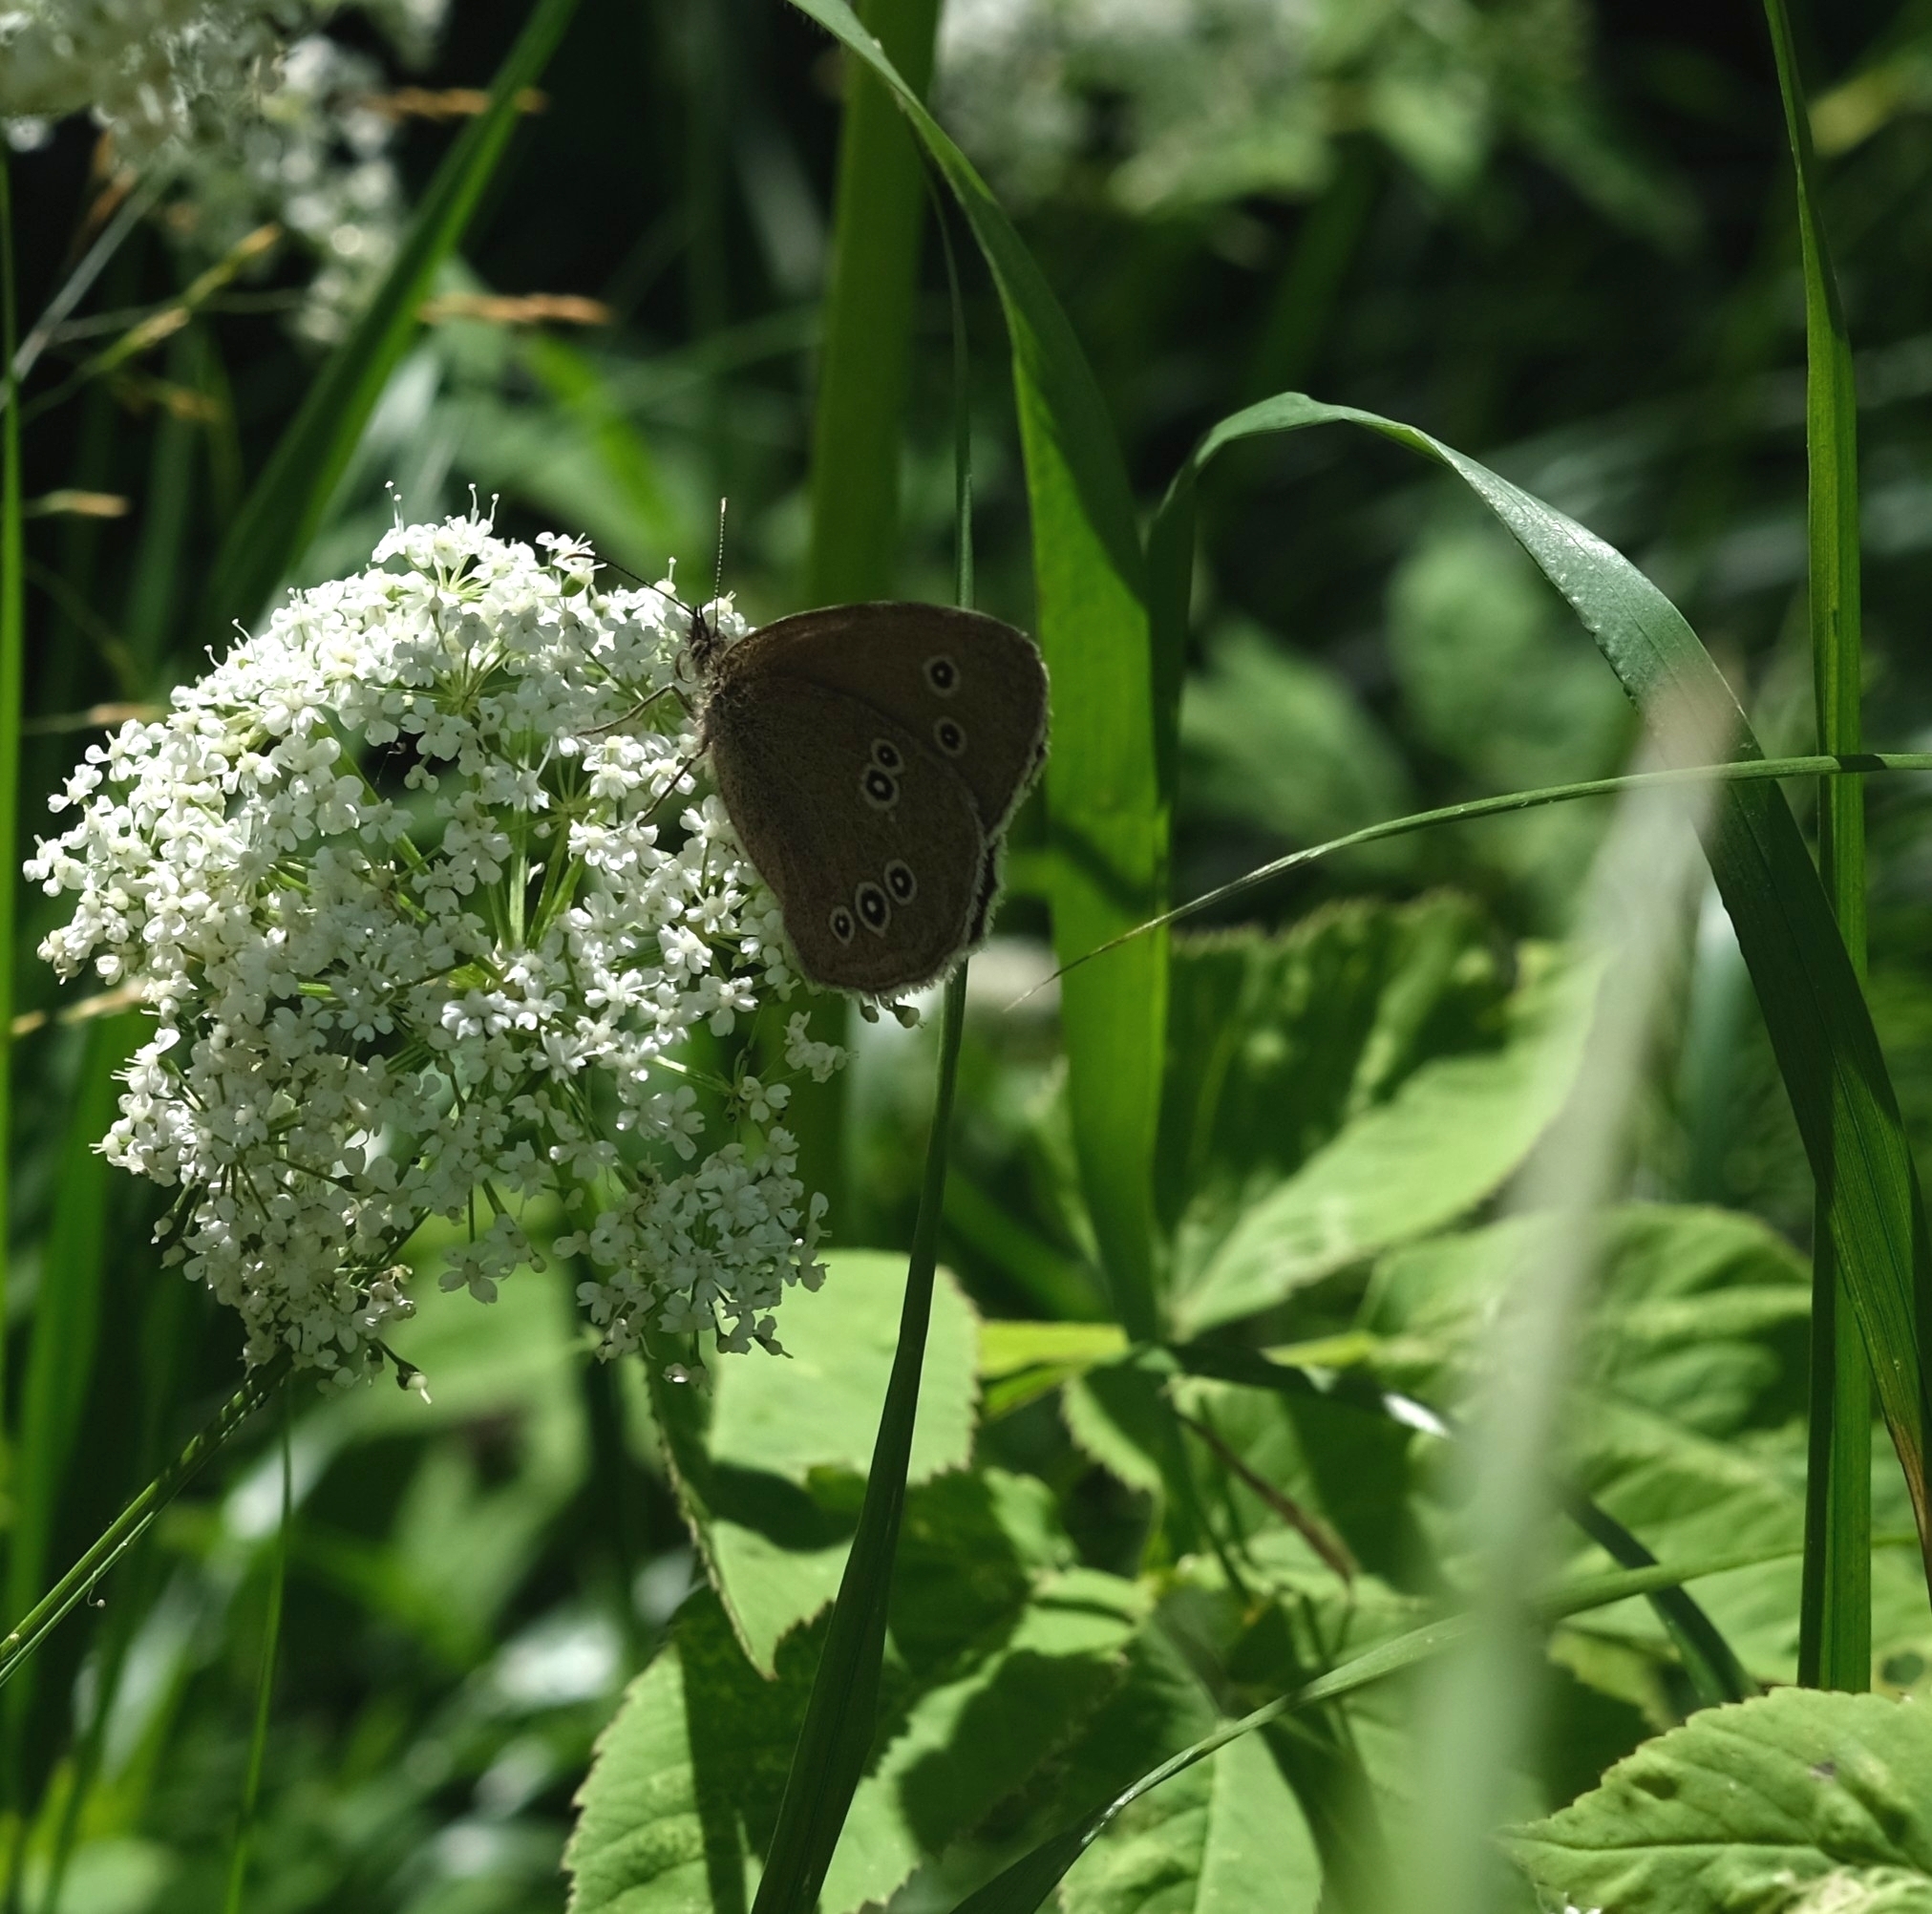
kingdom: Animalia
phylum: Arthropoda
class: Insecta
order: Lepidoptera
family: Nymphalidae
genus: Aphantopus
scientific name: Aphantopus hyperantus
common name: Ringlet
